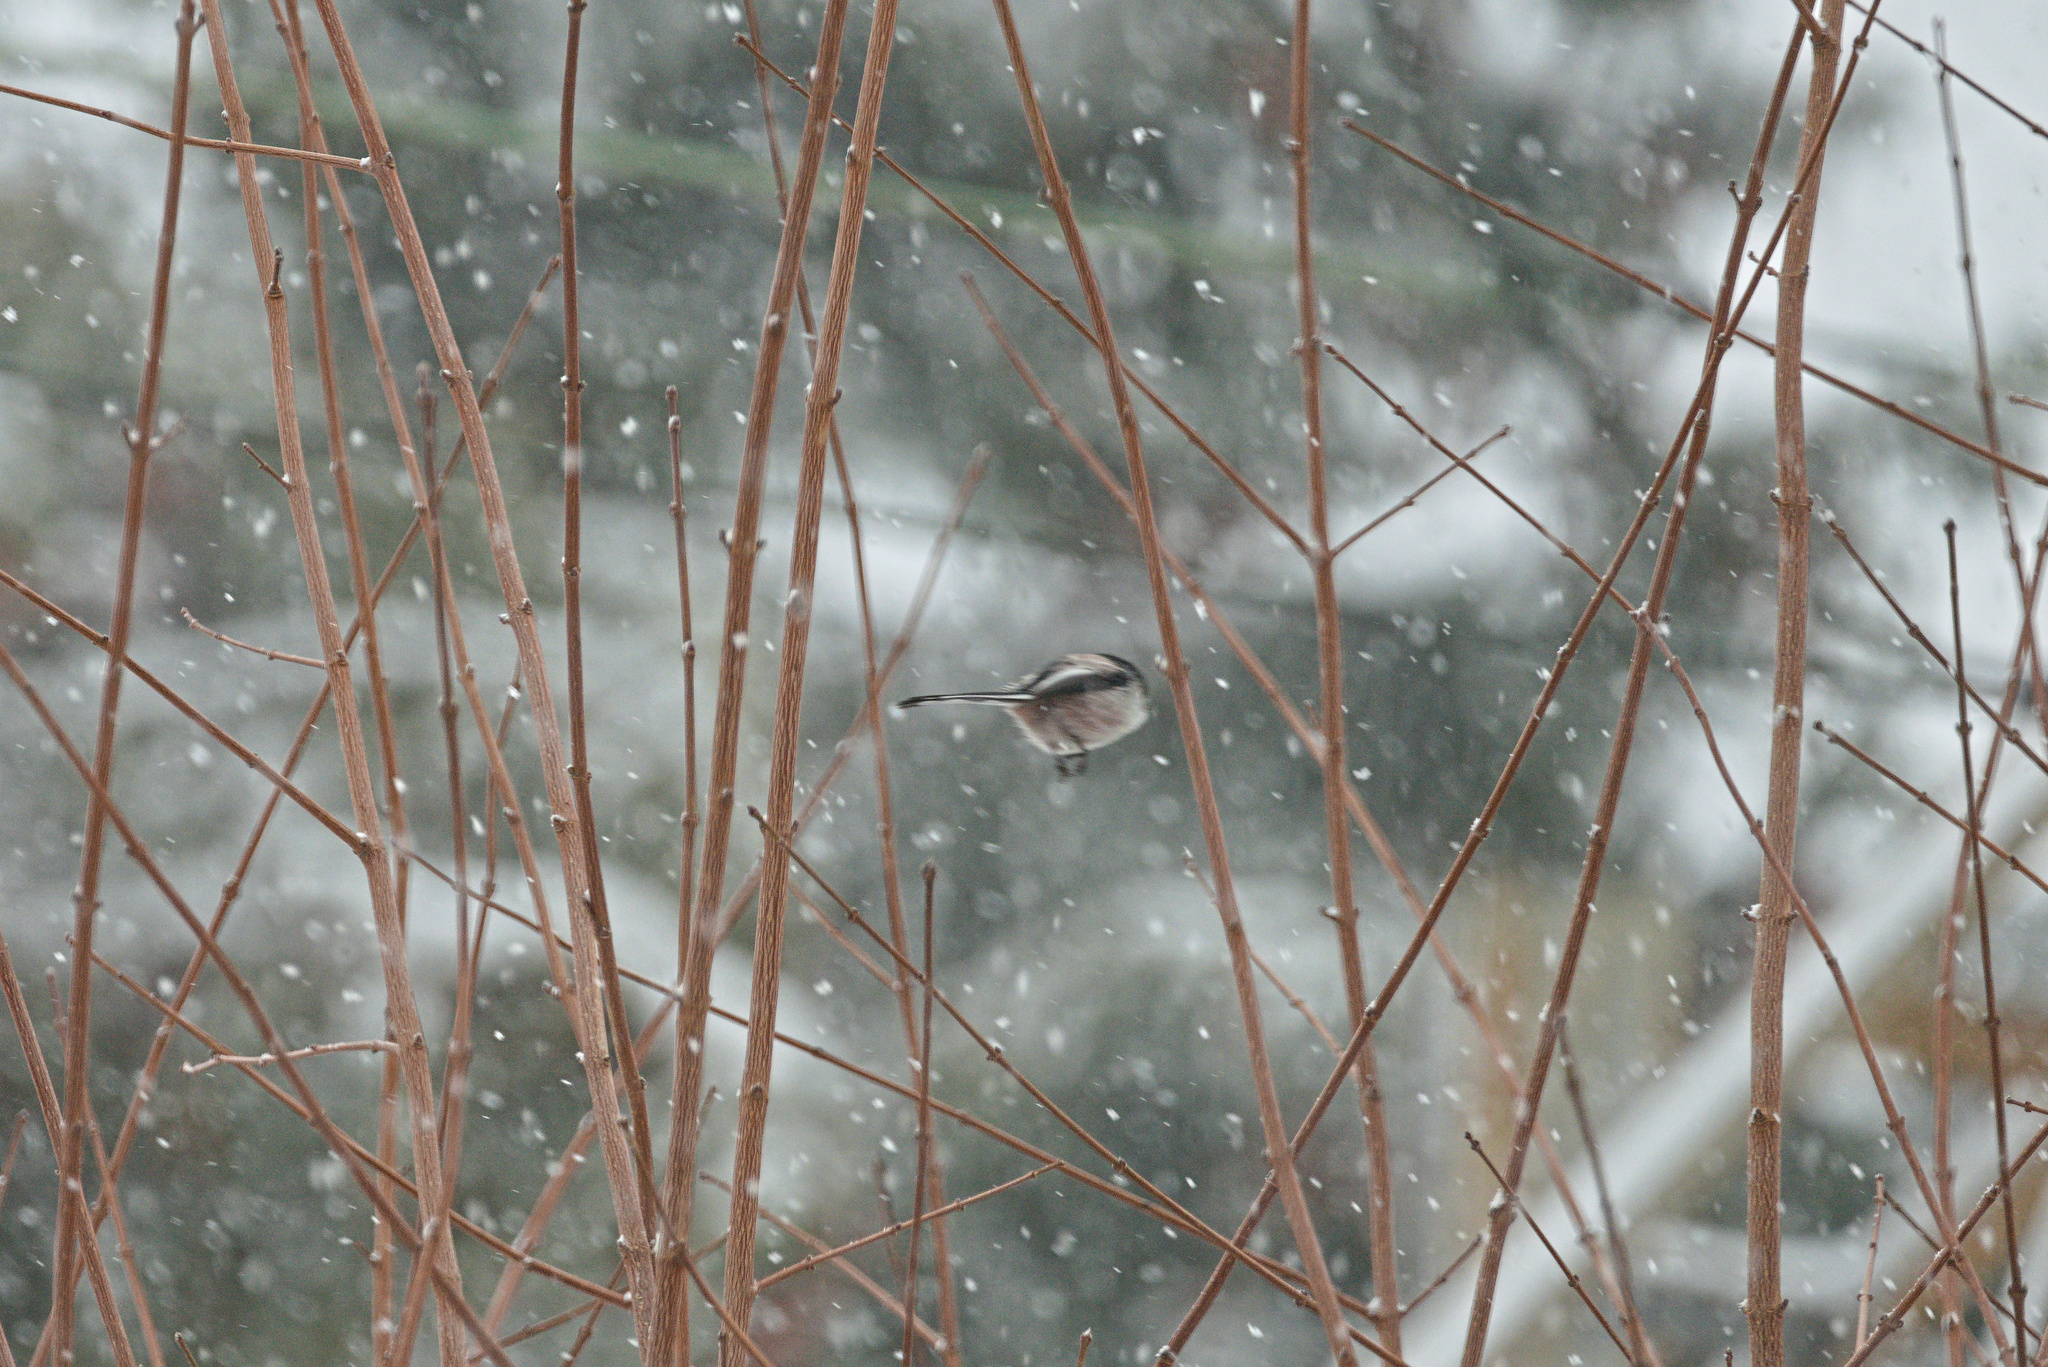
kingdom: Animalia
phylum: Chordata
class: Aves
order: Passeriformes
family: Aegithalidae
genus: Aegithalos
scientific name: Aegithalos caudatus
